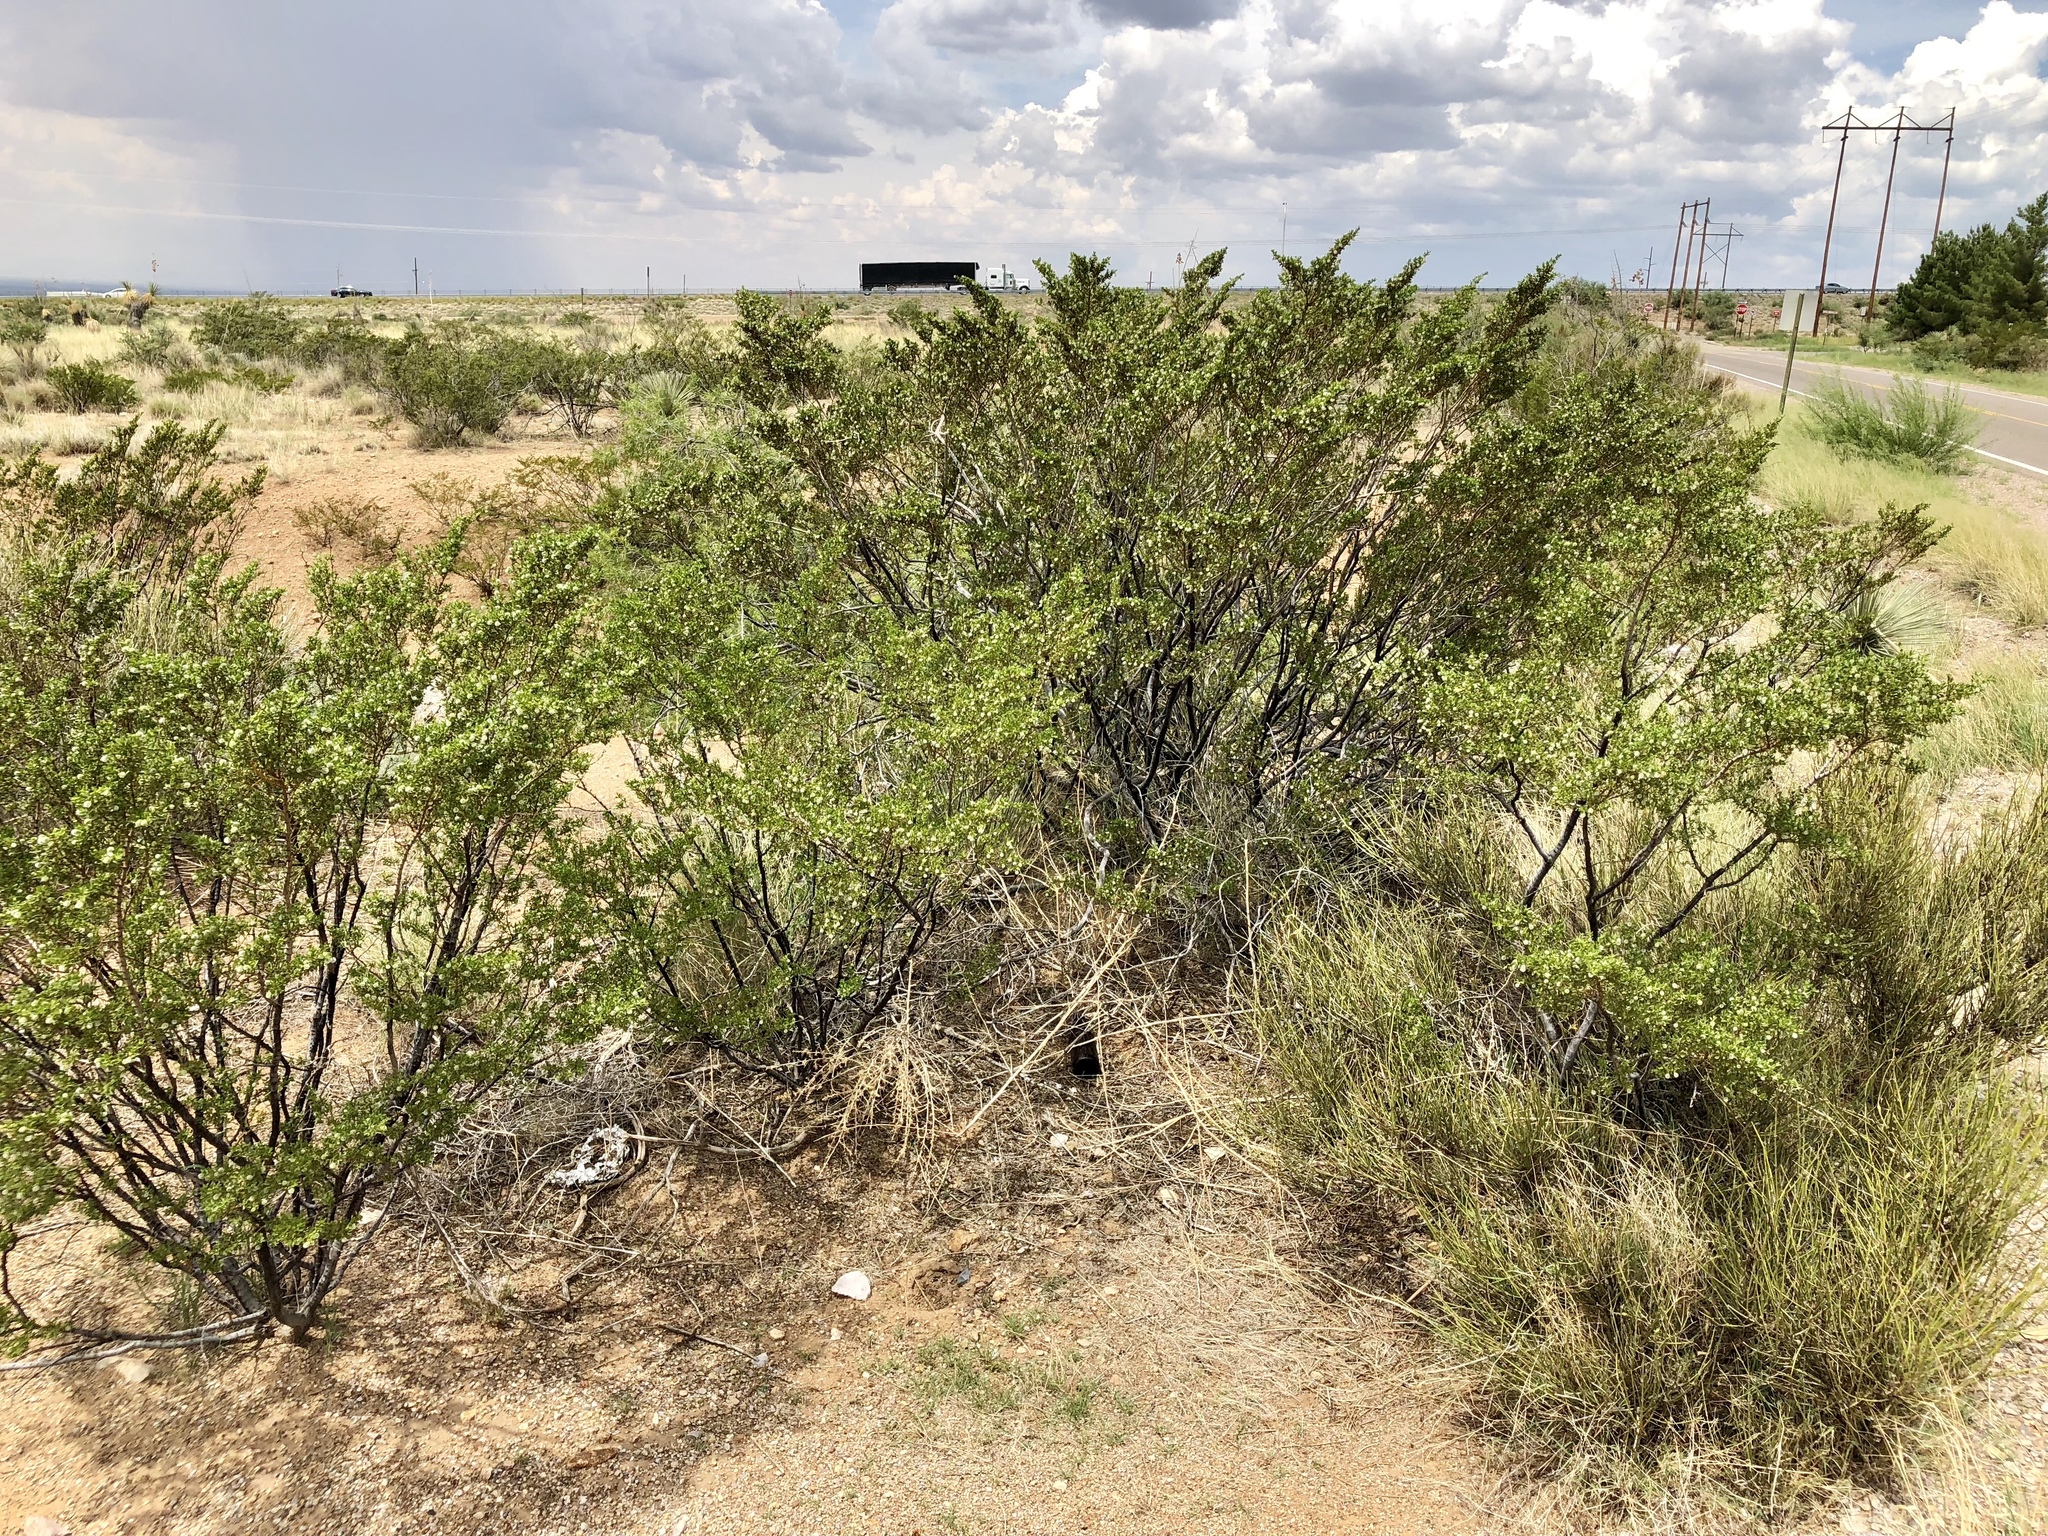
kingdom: Plantae
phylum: Tracheophyta
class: Magnoliopsida
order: Zygophyllales
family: Zygophyllaceae
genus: Larrea
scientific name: Larrea tridentata
